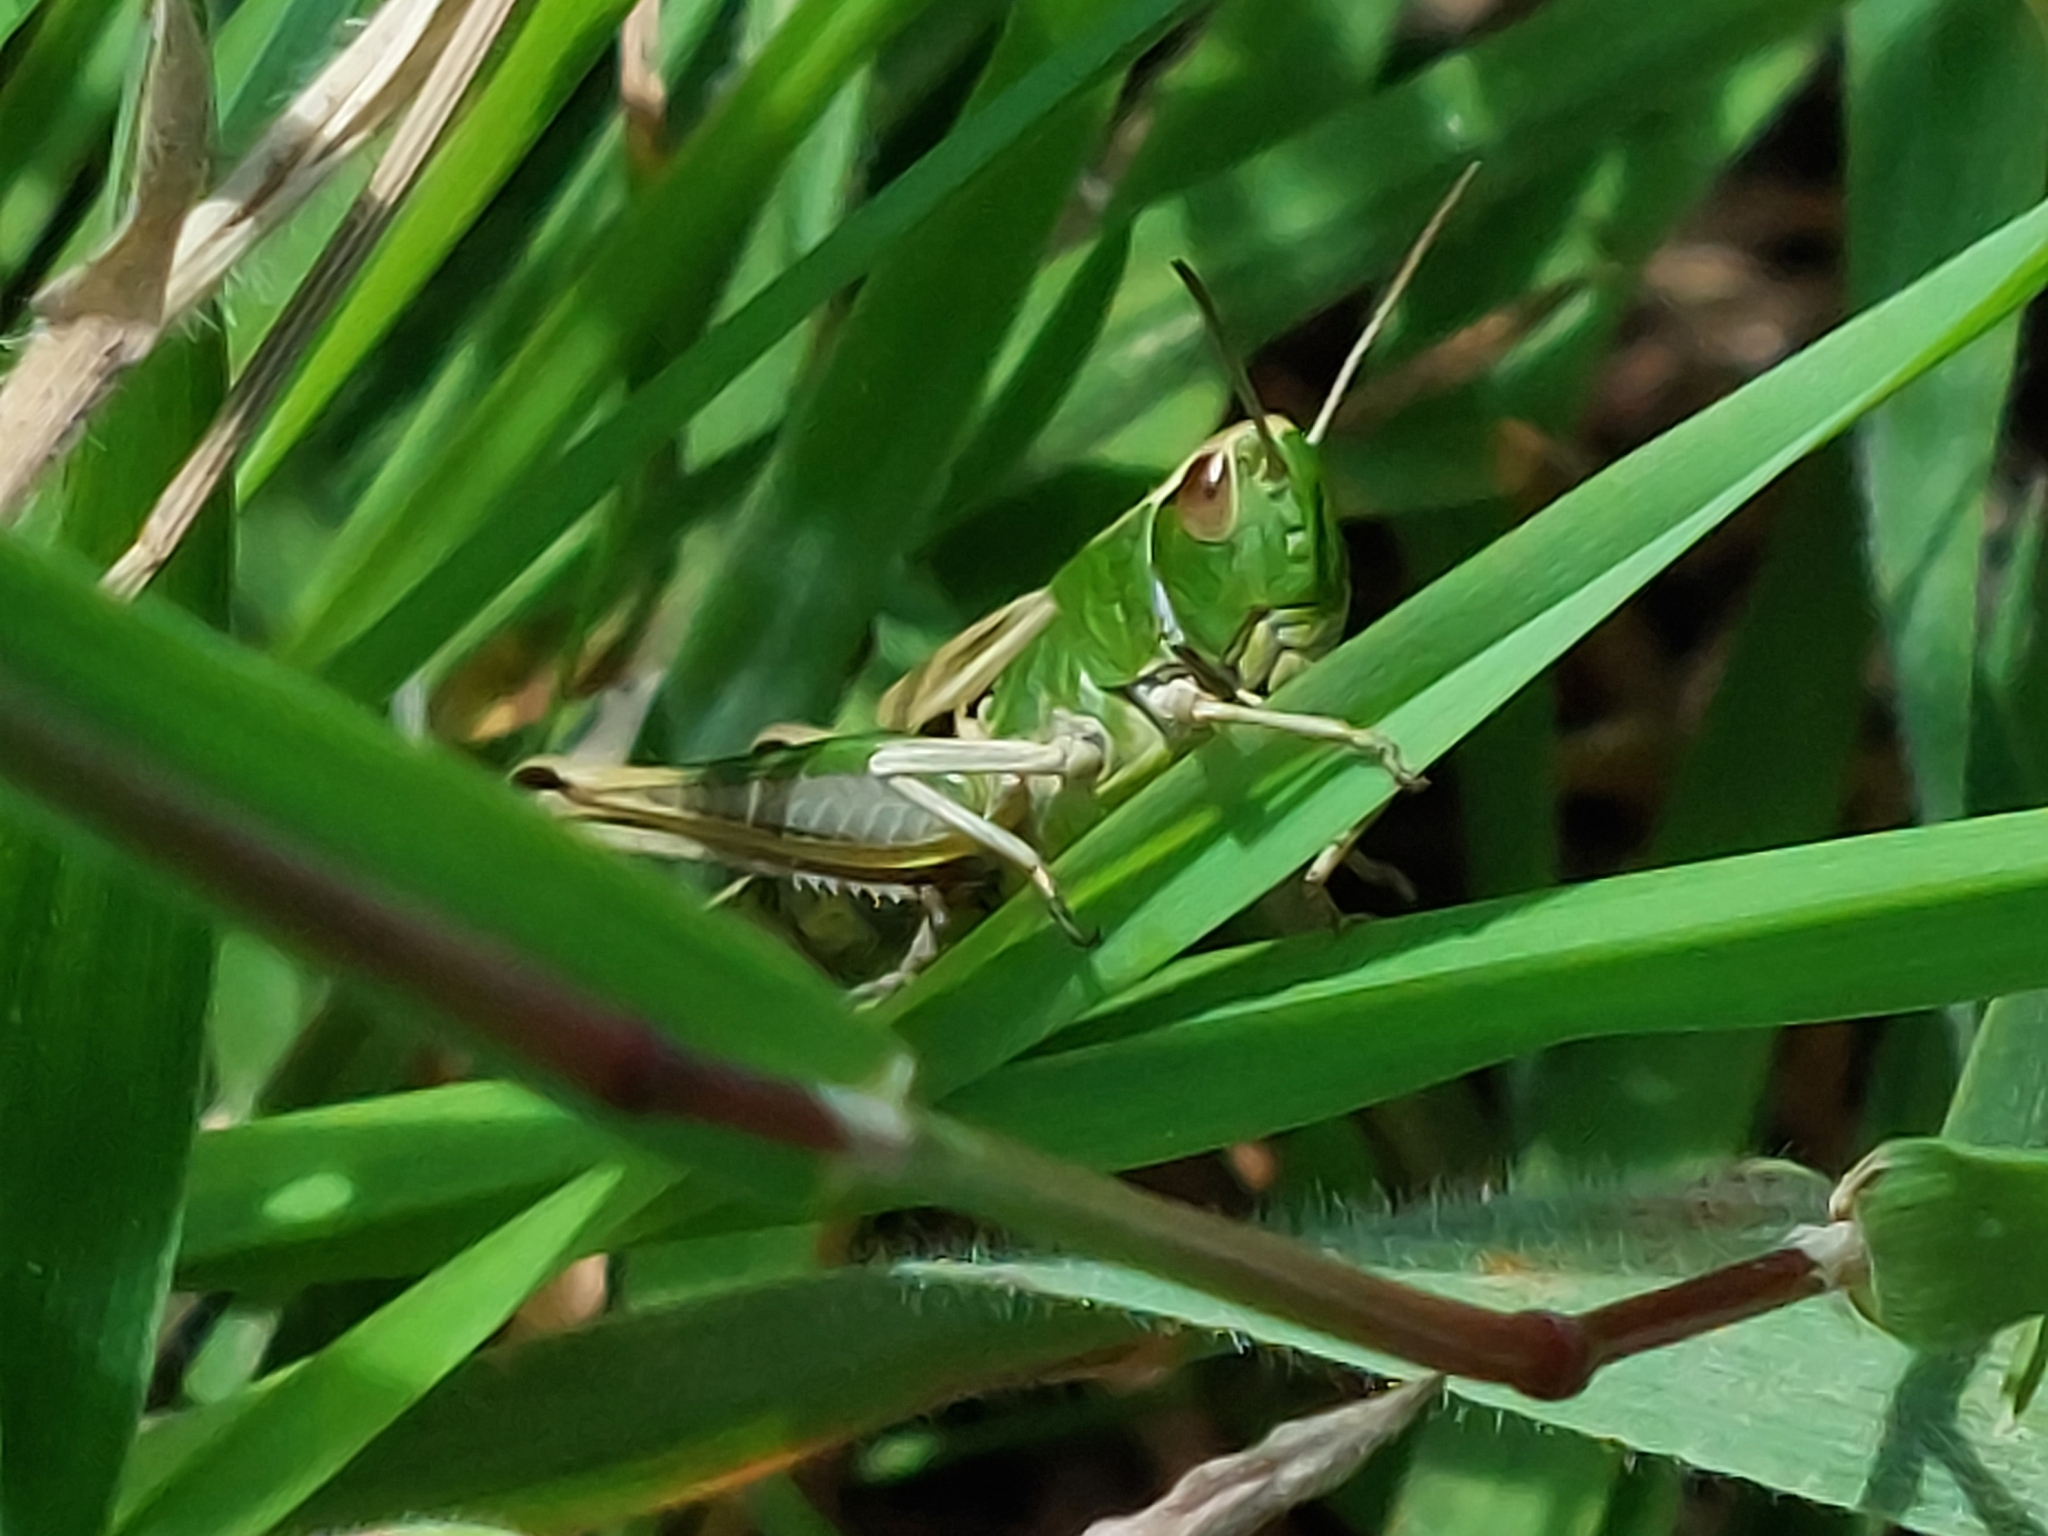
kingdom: Animalia
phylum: Arthropoda
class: Insecta
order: Orthoptera
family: Acrididae
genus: Pseudochorthippus
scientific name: Pseudochorthippus parallelus
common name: Meadow grasshopper
